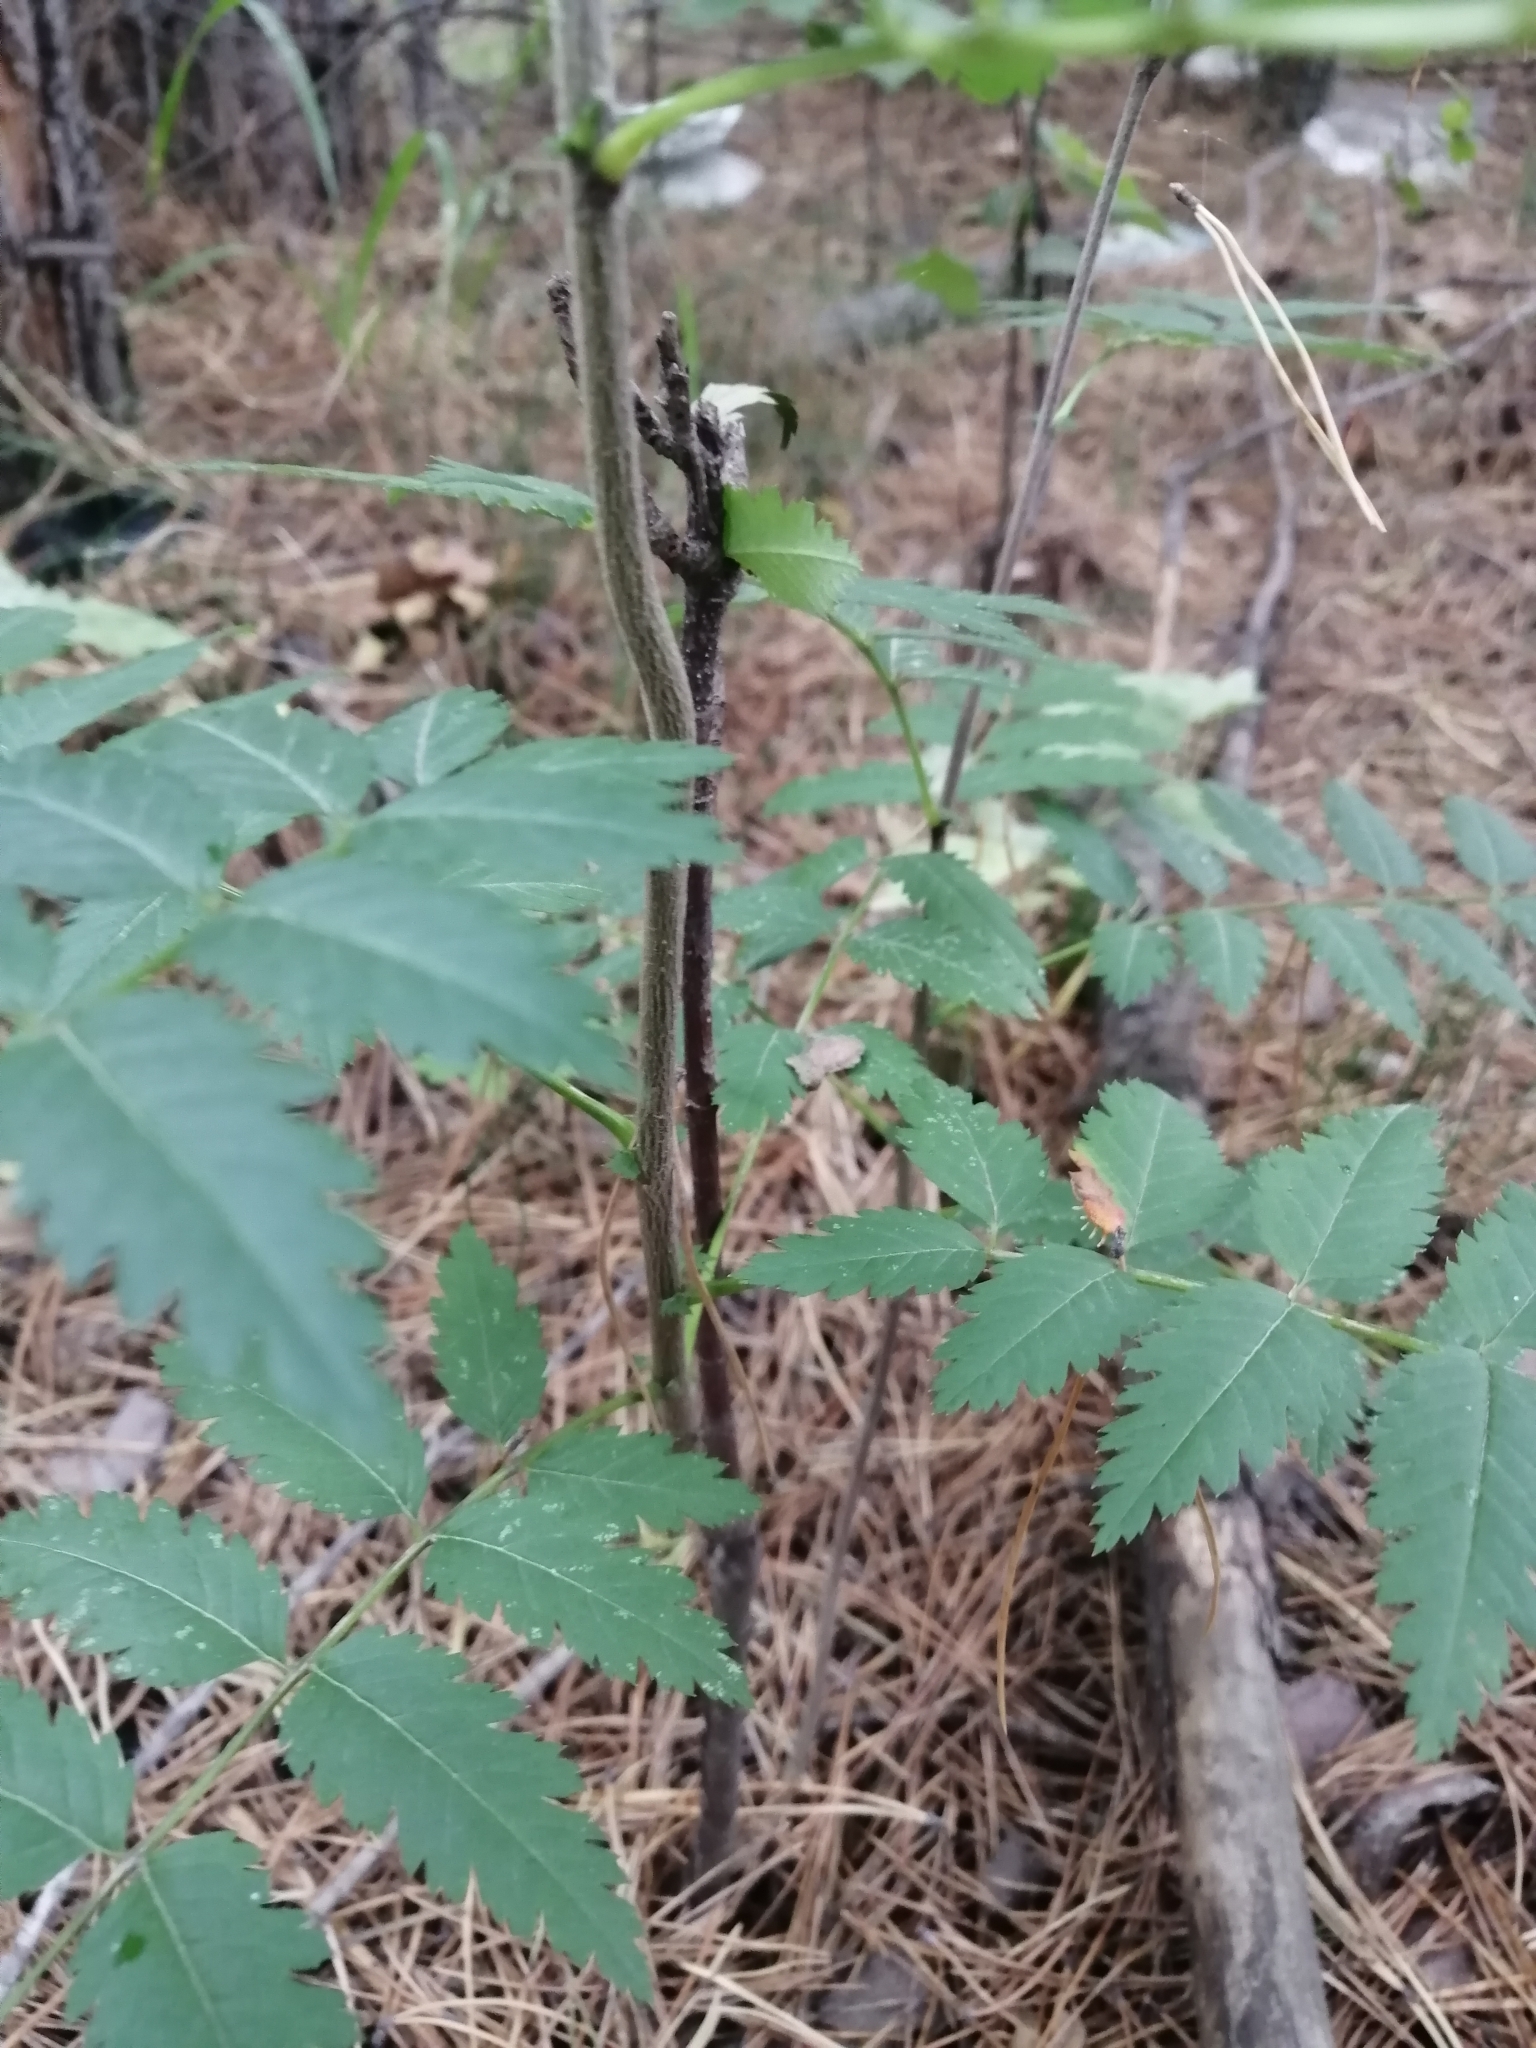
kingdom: Plantae
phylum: Tracheophyta
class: Magnoliopsida
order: Rosales
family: Rosaceae
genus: Sorbus
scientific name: Sorbus aucuparia
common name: Rowan
